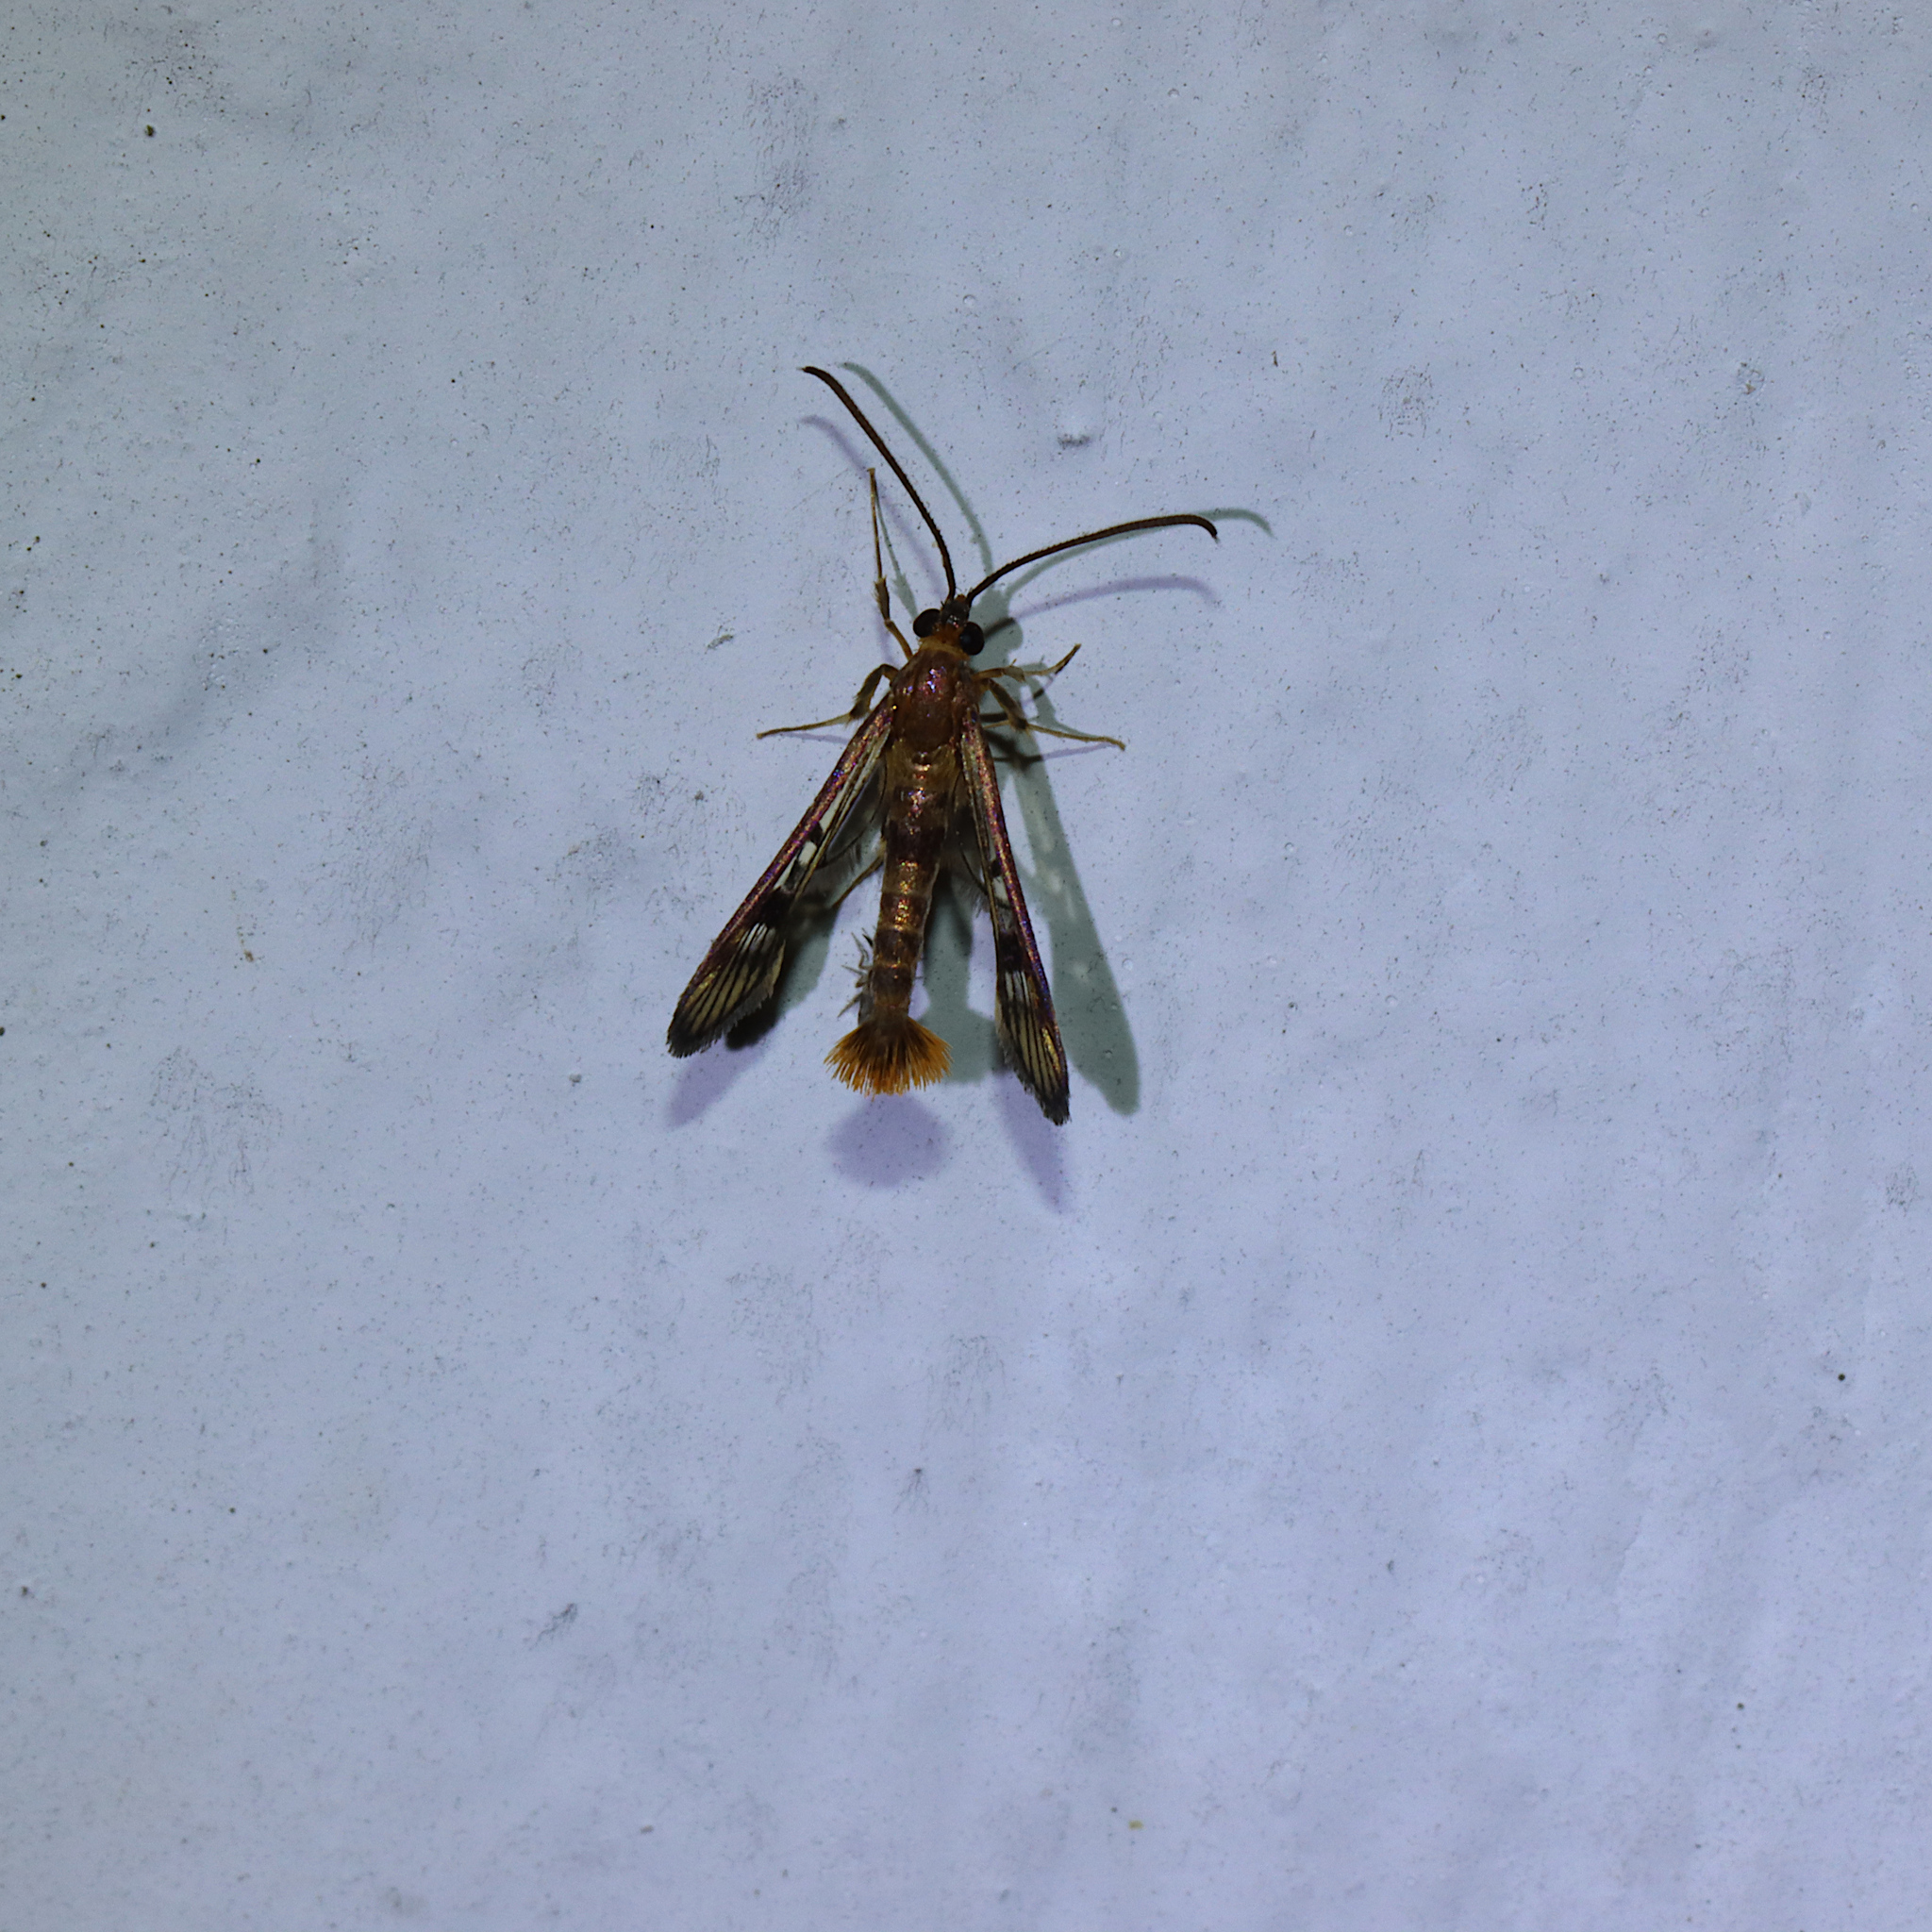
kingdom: Animalia
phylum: Arthropoda
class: Insecta
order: Lepidoptera
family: Sesiidae
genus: Synanthedon
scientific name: Synanthedon acerni
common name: Maple callus borer moth
